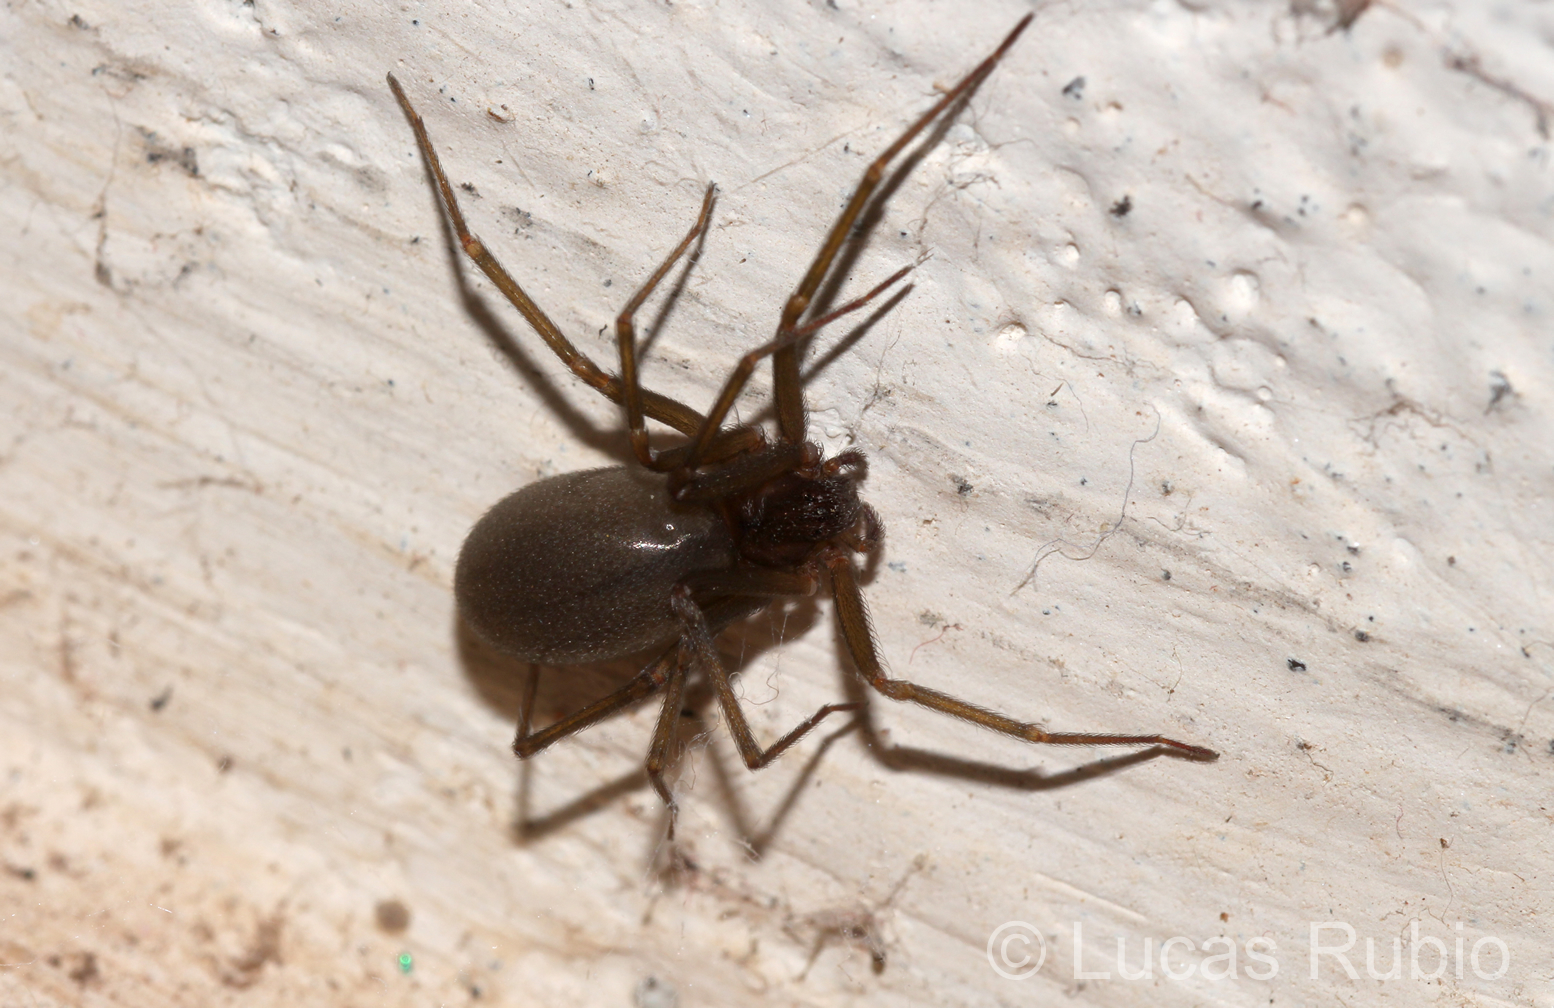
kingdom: Animalia
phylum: Arthropoda
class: Arachnida
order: Araneae
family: Sicariidae
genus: Loxosceles
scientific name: Loxosceles
